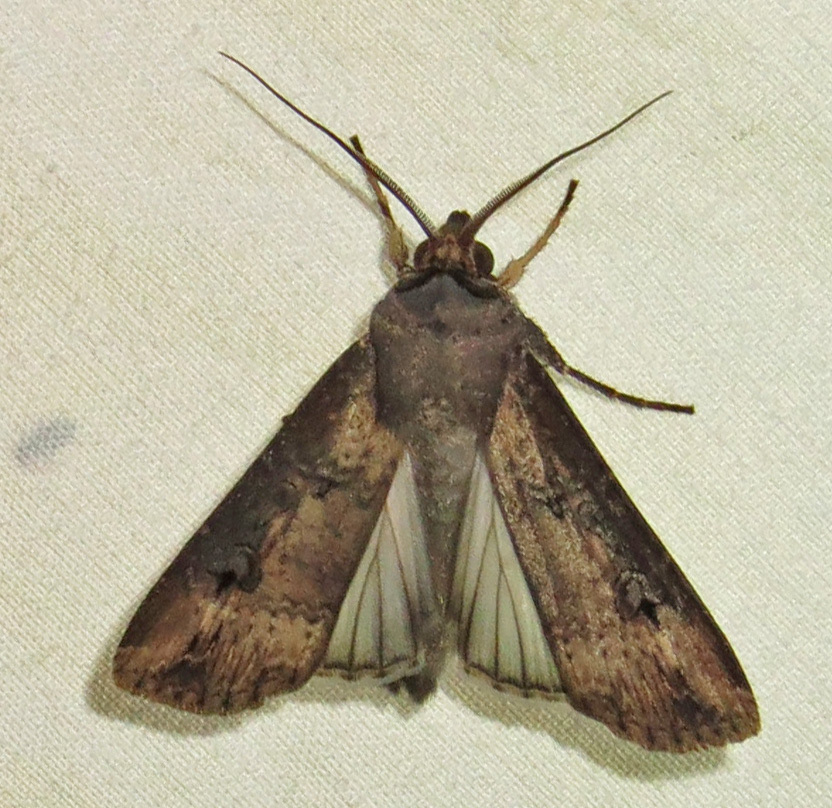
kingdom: Animalia
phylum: Arthropoda
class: Insecta
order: Lepidoptera
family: Noctuidae
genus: Agrotis
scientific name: Agrotis ipsilon
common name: Dark sword-grass
